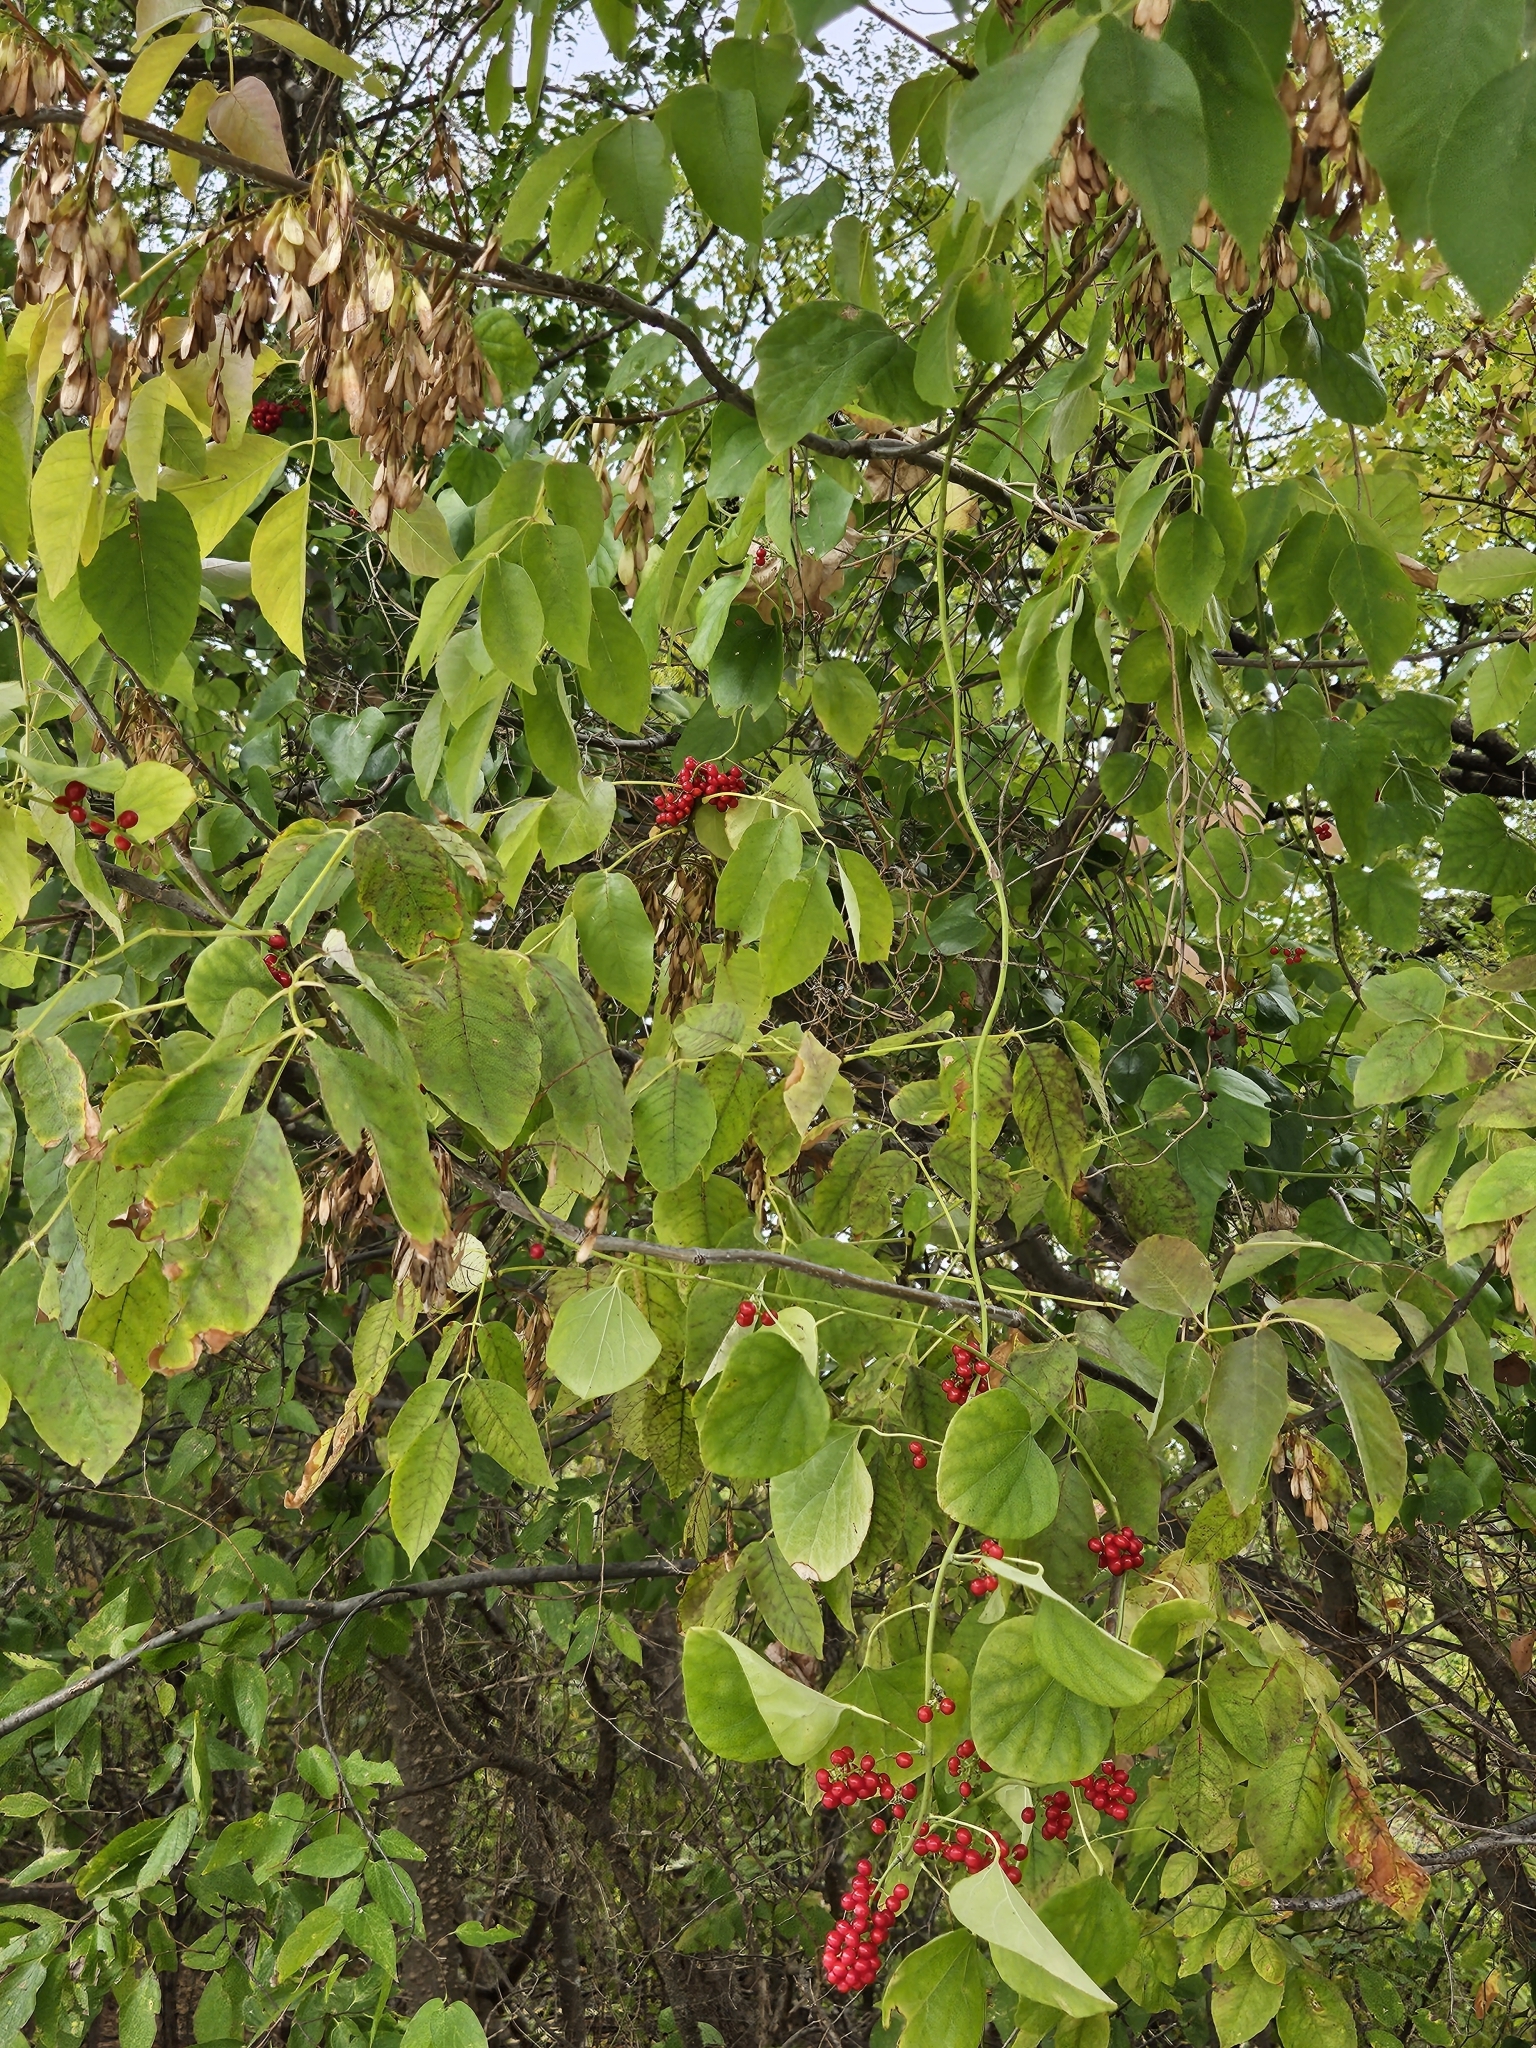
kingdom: Plantae
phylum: Tracheophyta
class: Magnoliopsida
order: Ranunculales
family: Menispermaceae
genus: Cocculus
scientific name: Cocculus carolinus
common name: Carolina moonseed
